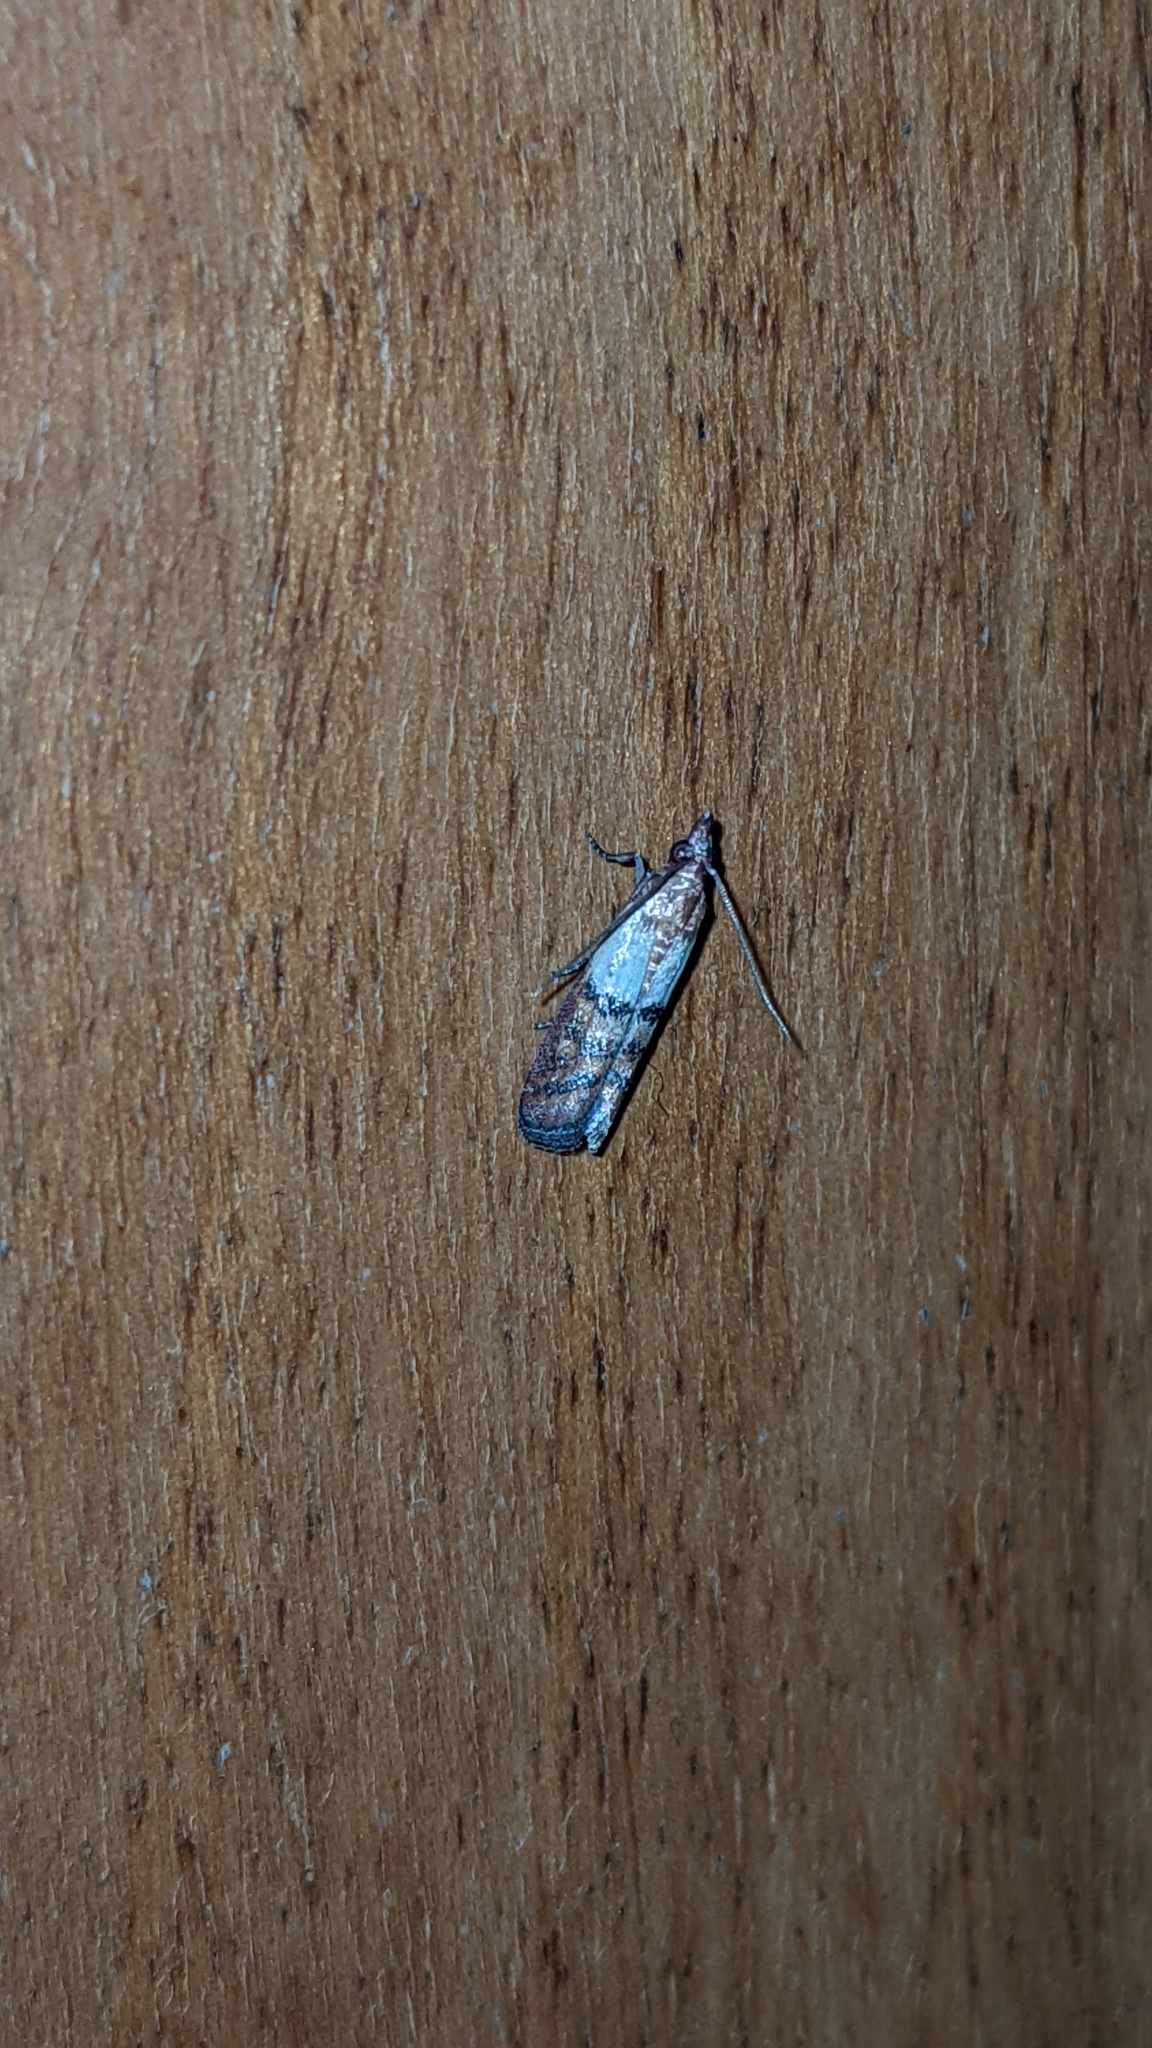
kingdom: Animalia
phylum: Arthropoda
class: Insecta
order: Lepidoptera
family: Pyralidae
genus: Plodia
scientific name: Plodia interpunctella
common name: Indian meal moth
